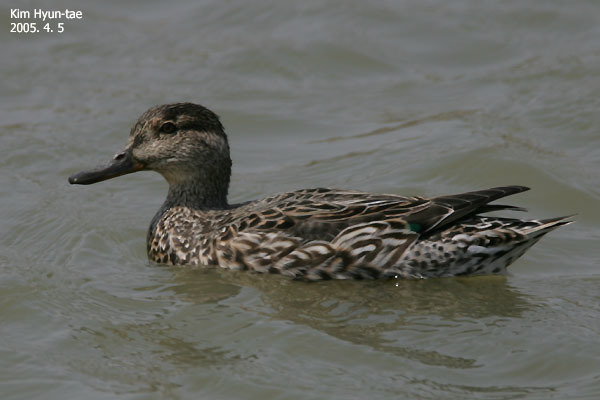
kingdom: Animalia
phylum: Chordata
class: Aves
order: Anseriformes
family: Anatidae
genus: Anas
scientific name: Anas crecca
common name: Eurasian teal
